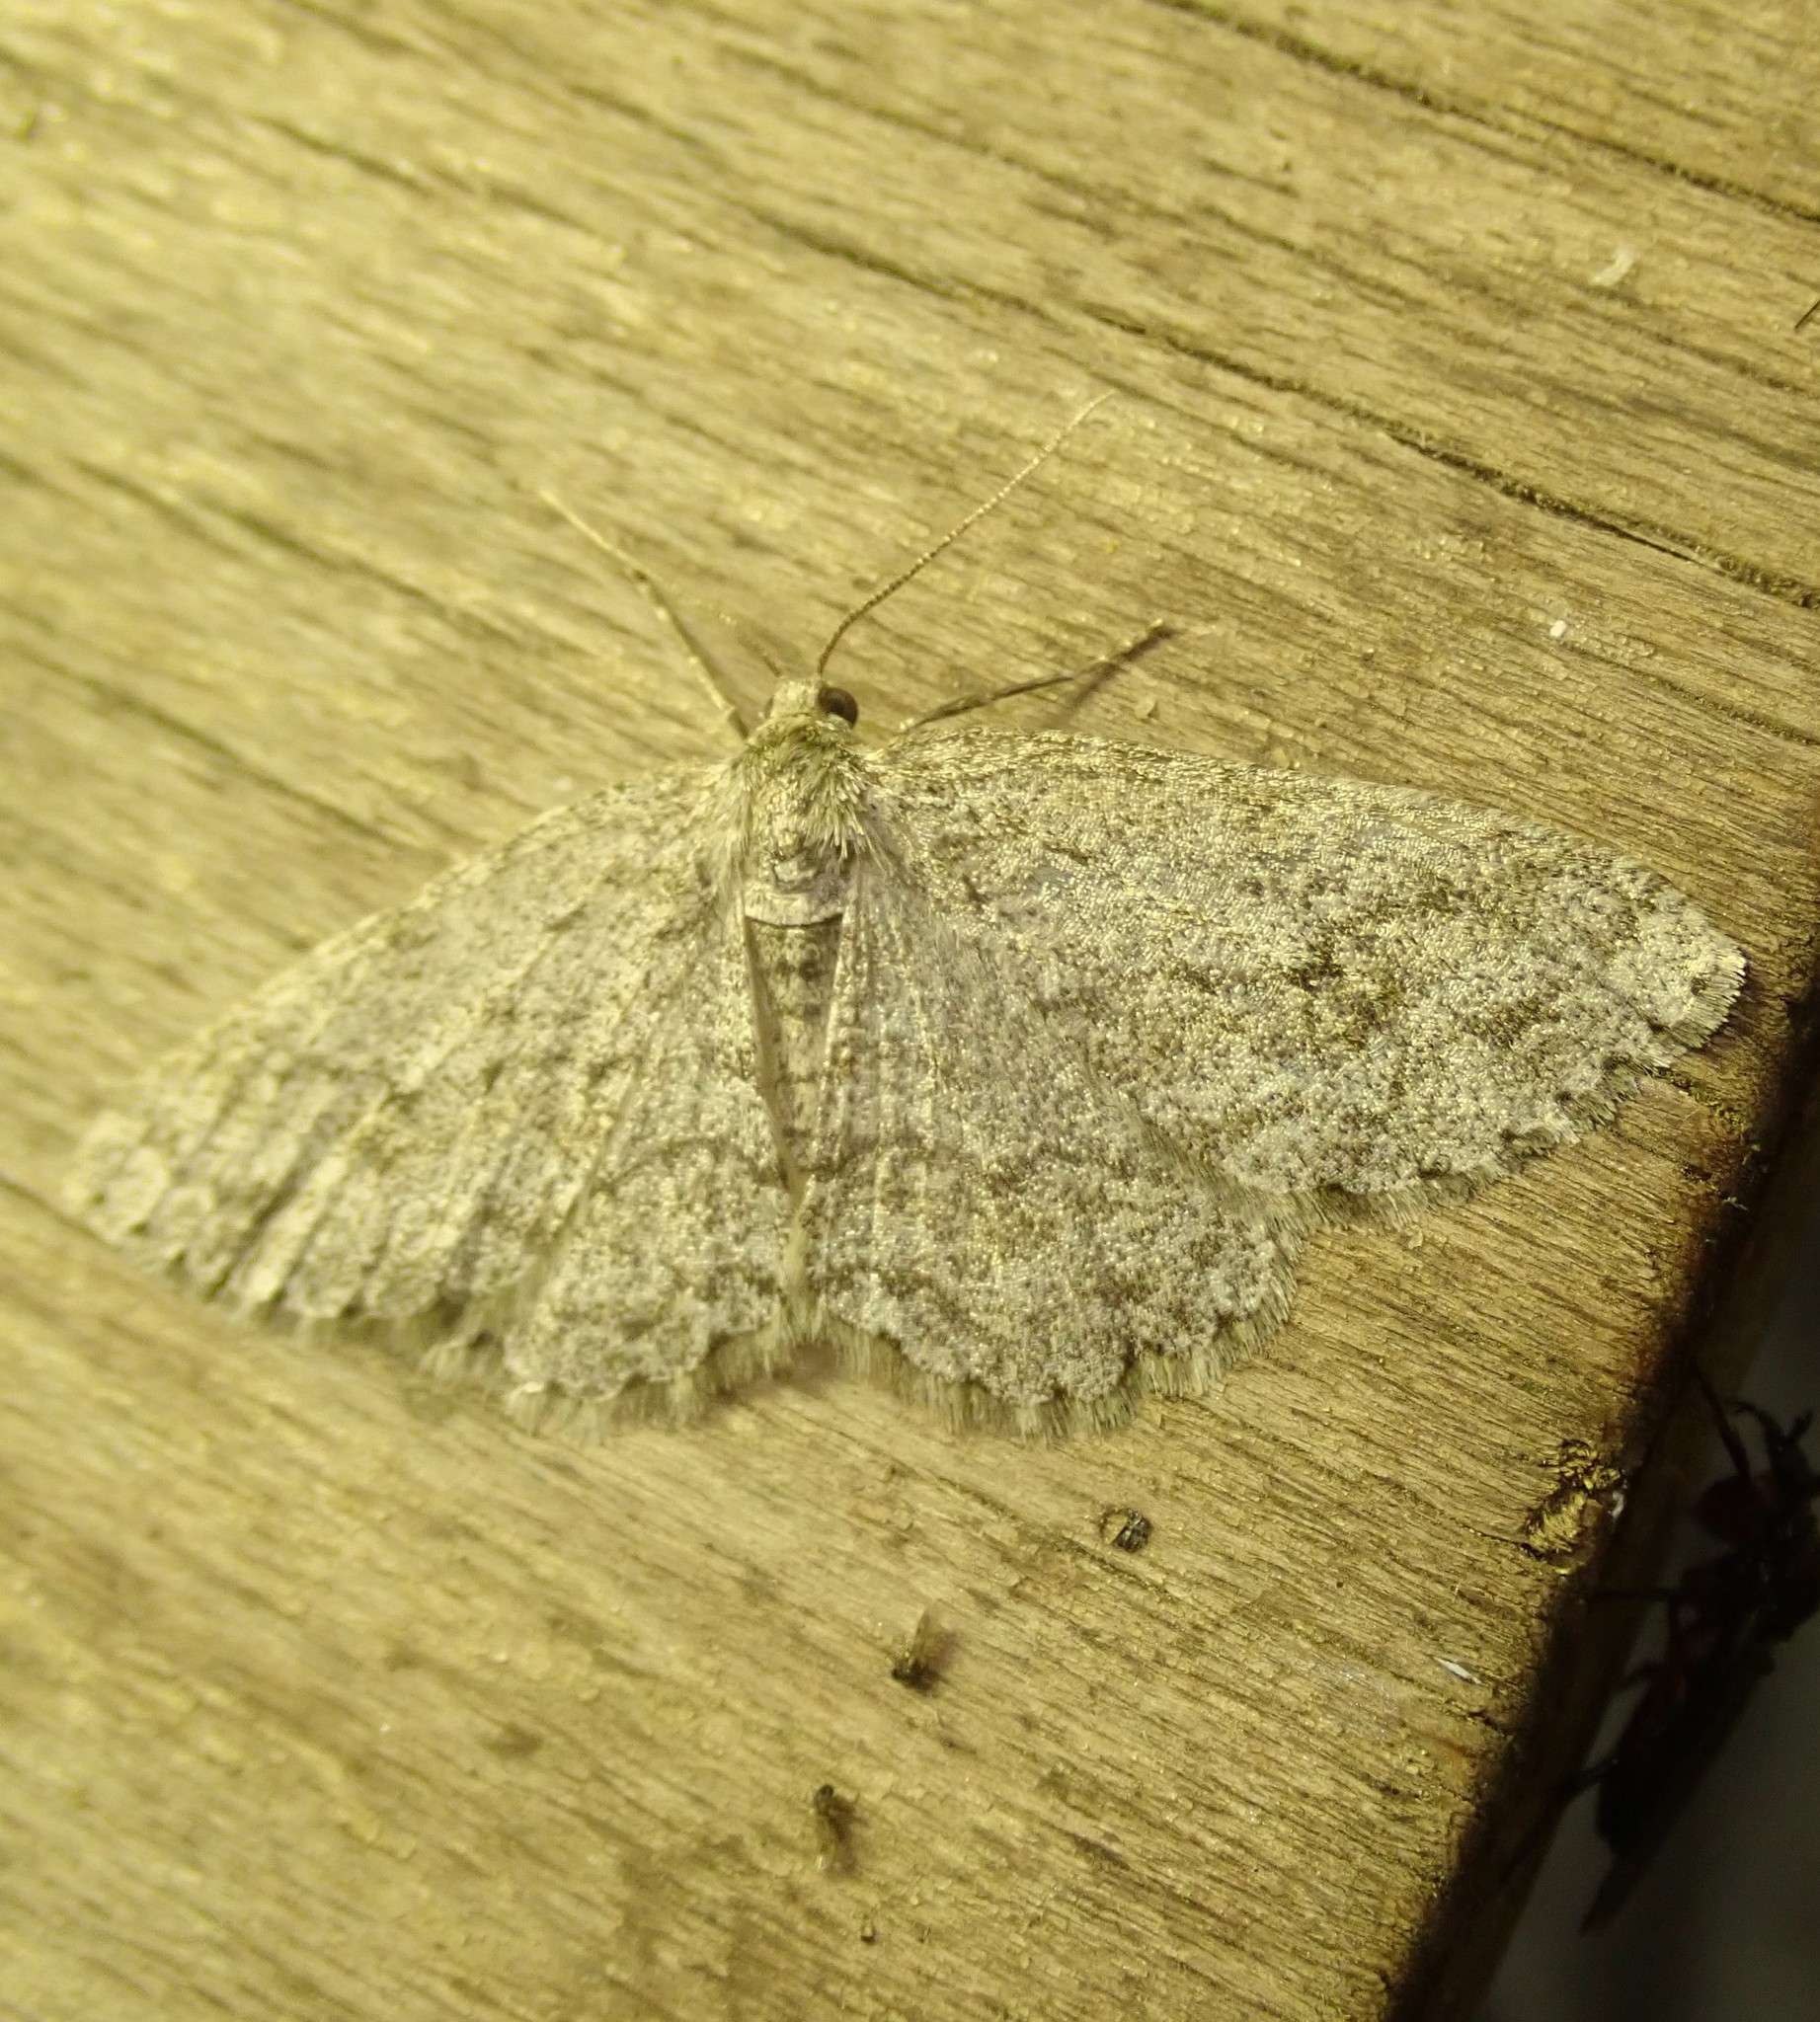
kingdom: Animalia
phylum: Arthropoda
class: Insecta
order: Lepidoptera
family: Geometridae
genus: Ectropis
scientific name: Ectropis crepuscularia
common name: Engrailed
